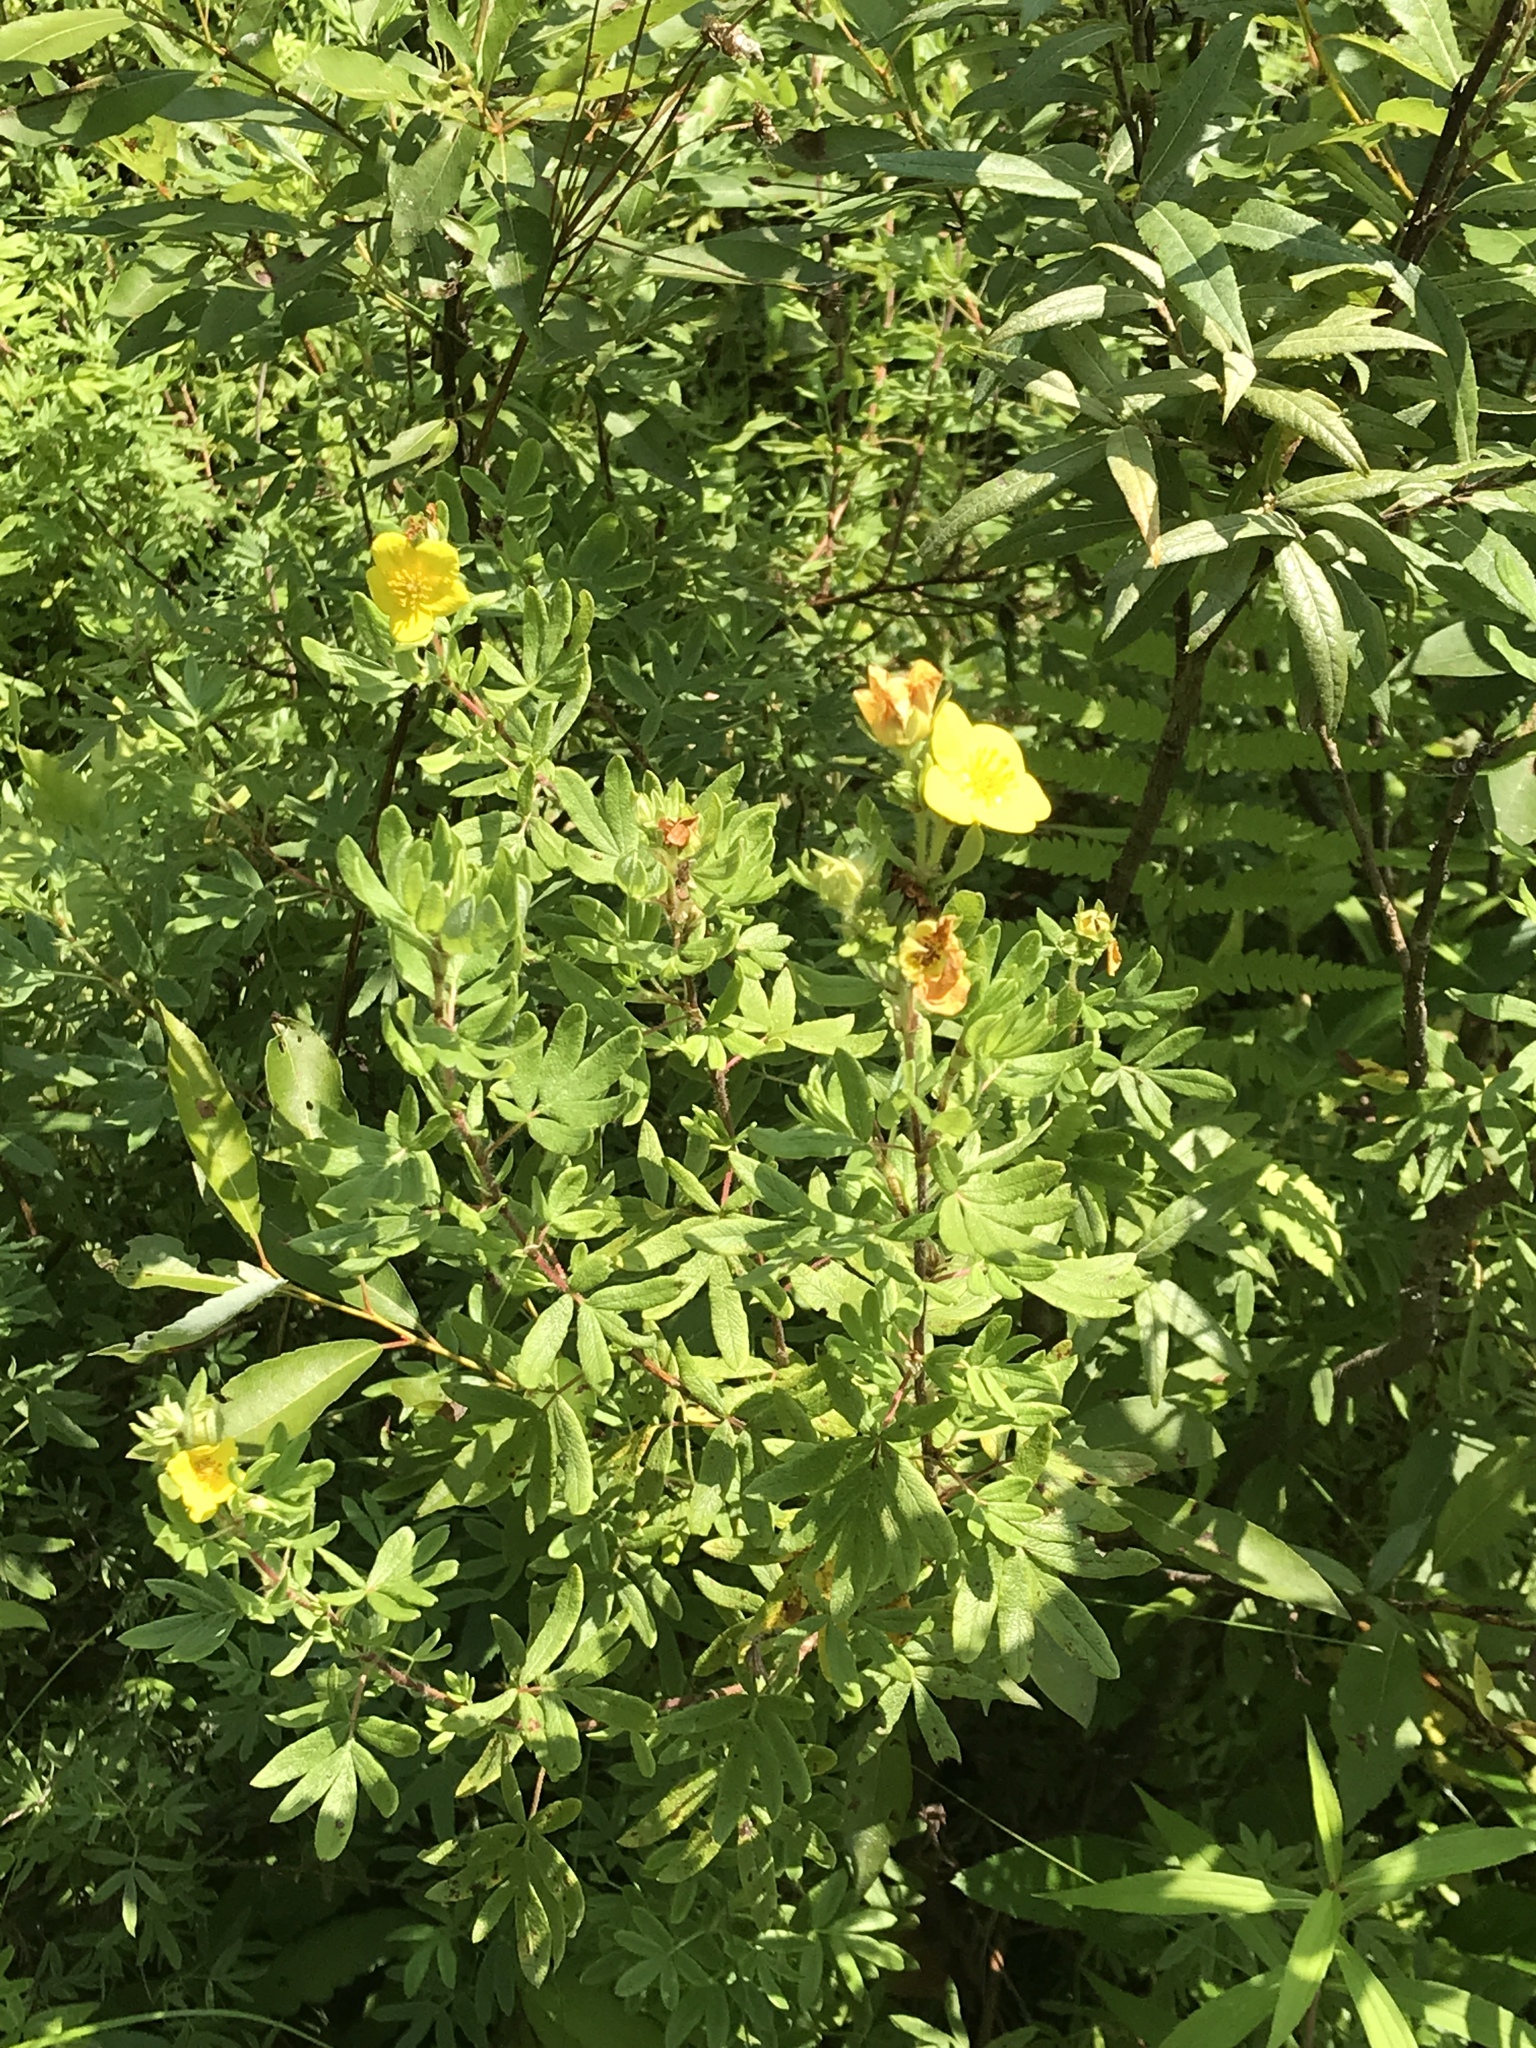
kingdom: Plantae
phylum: Tracheophyta
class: Magnoliopsida
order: Rosales
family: Rosaceae
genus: Dasiphora
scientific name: Dasiphora fruticosa
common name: Shrubby cinquefoil
